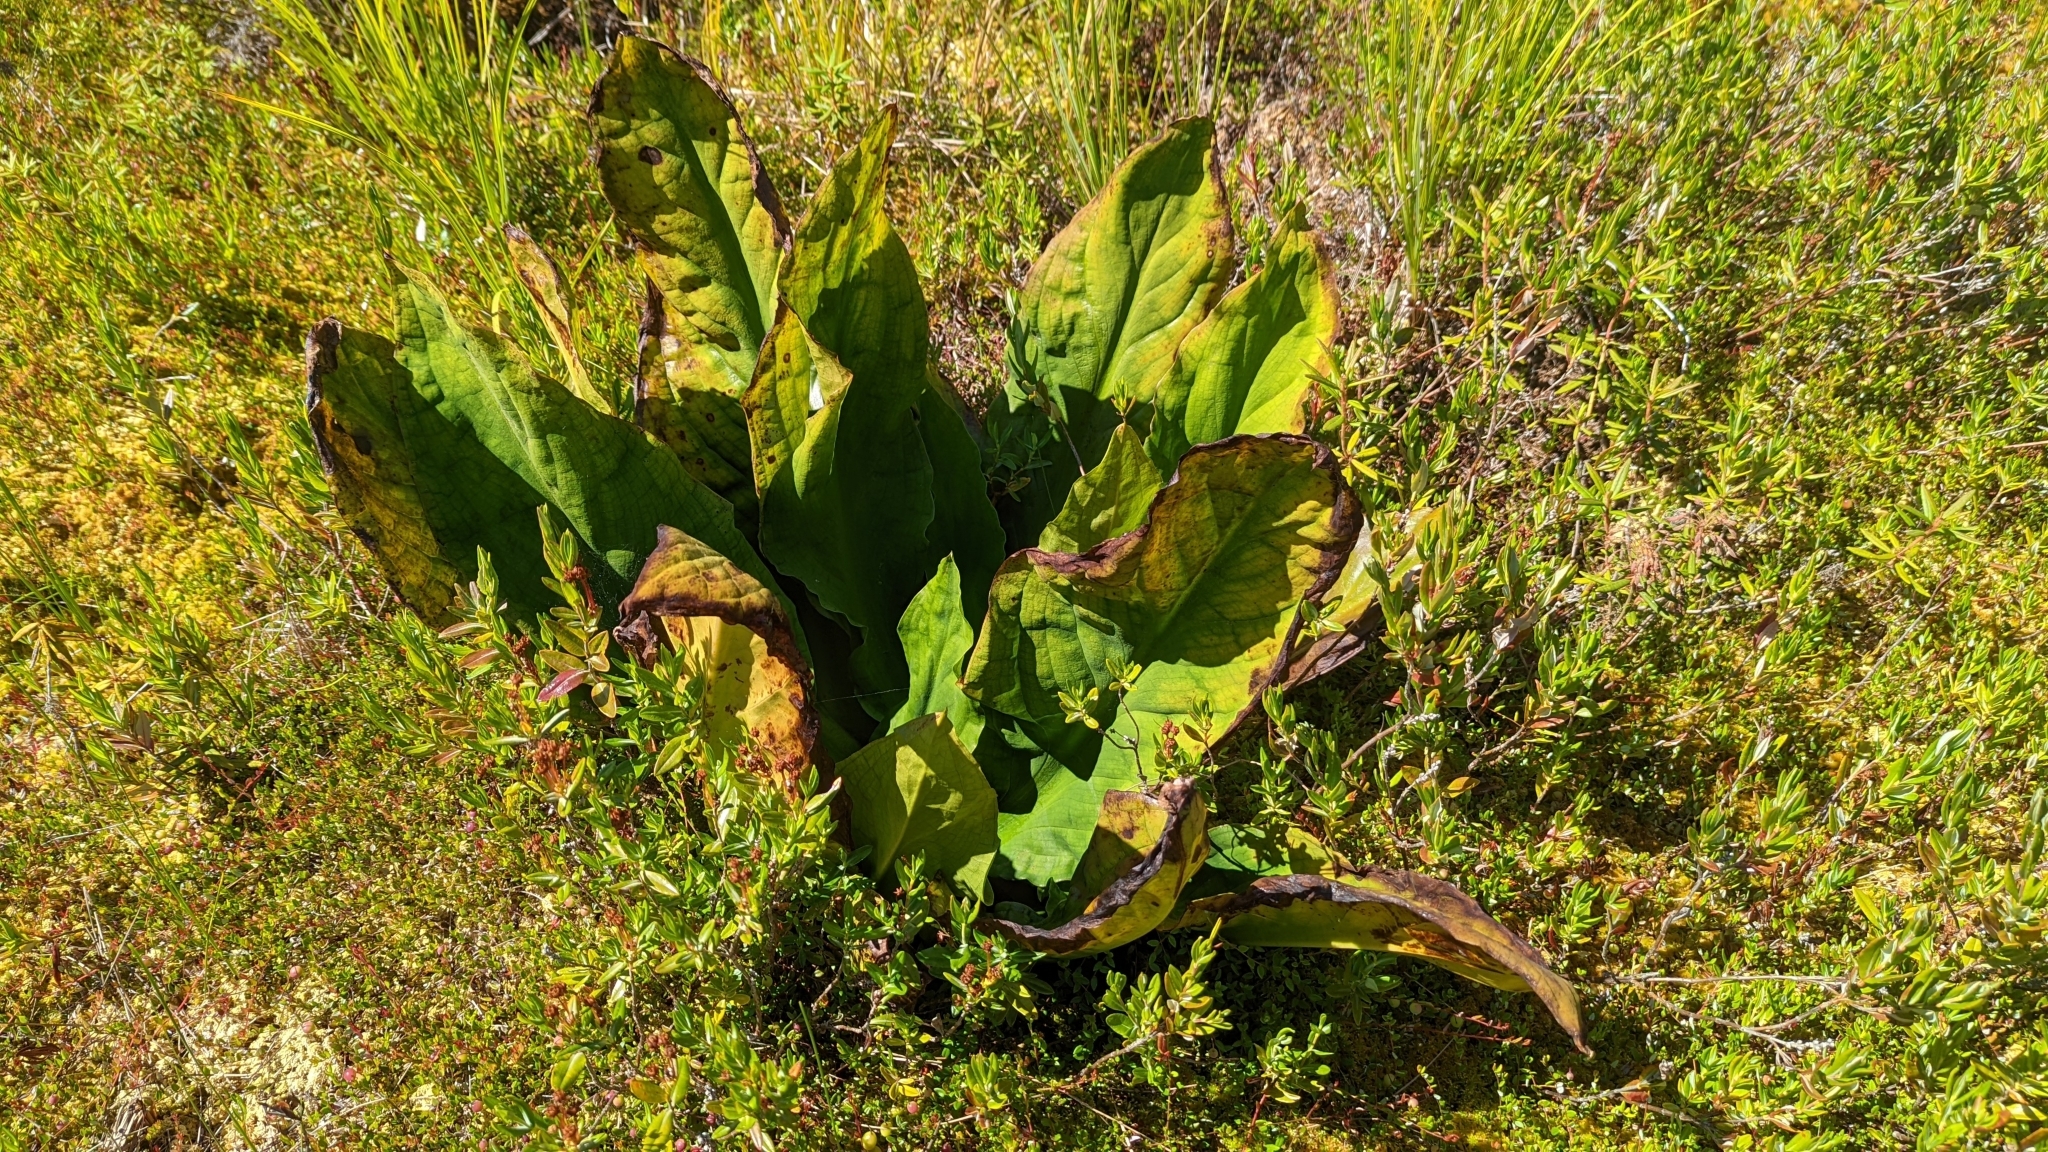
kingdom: Plantae
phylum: Tracheophyta
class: Liliopsida
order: Alismatales
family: Araceae
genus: Lysichiton
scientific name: Lysichiton americanus
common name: American skunk cabbage
